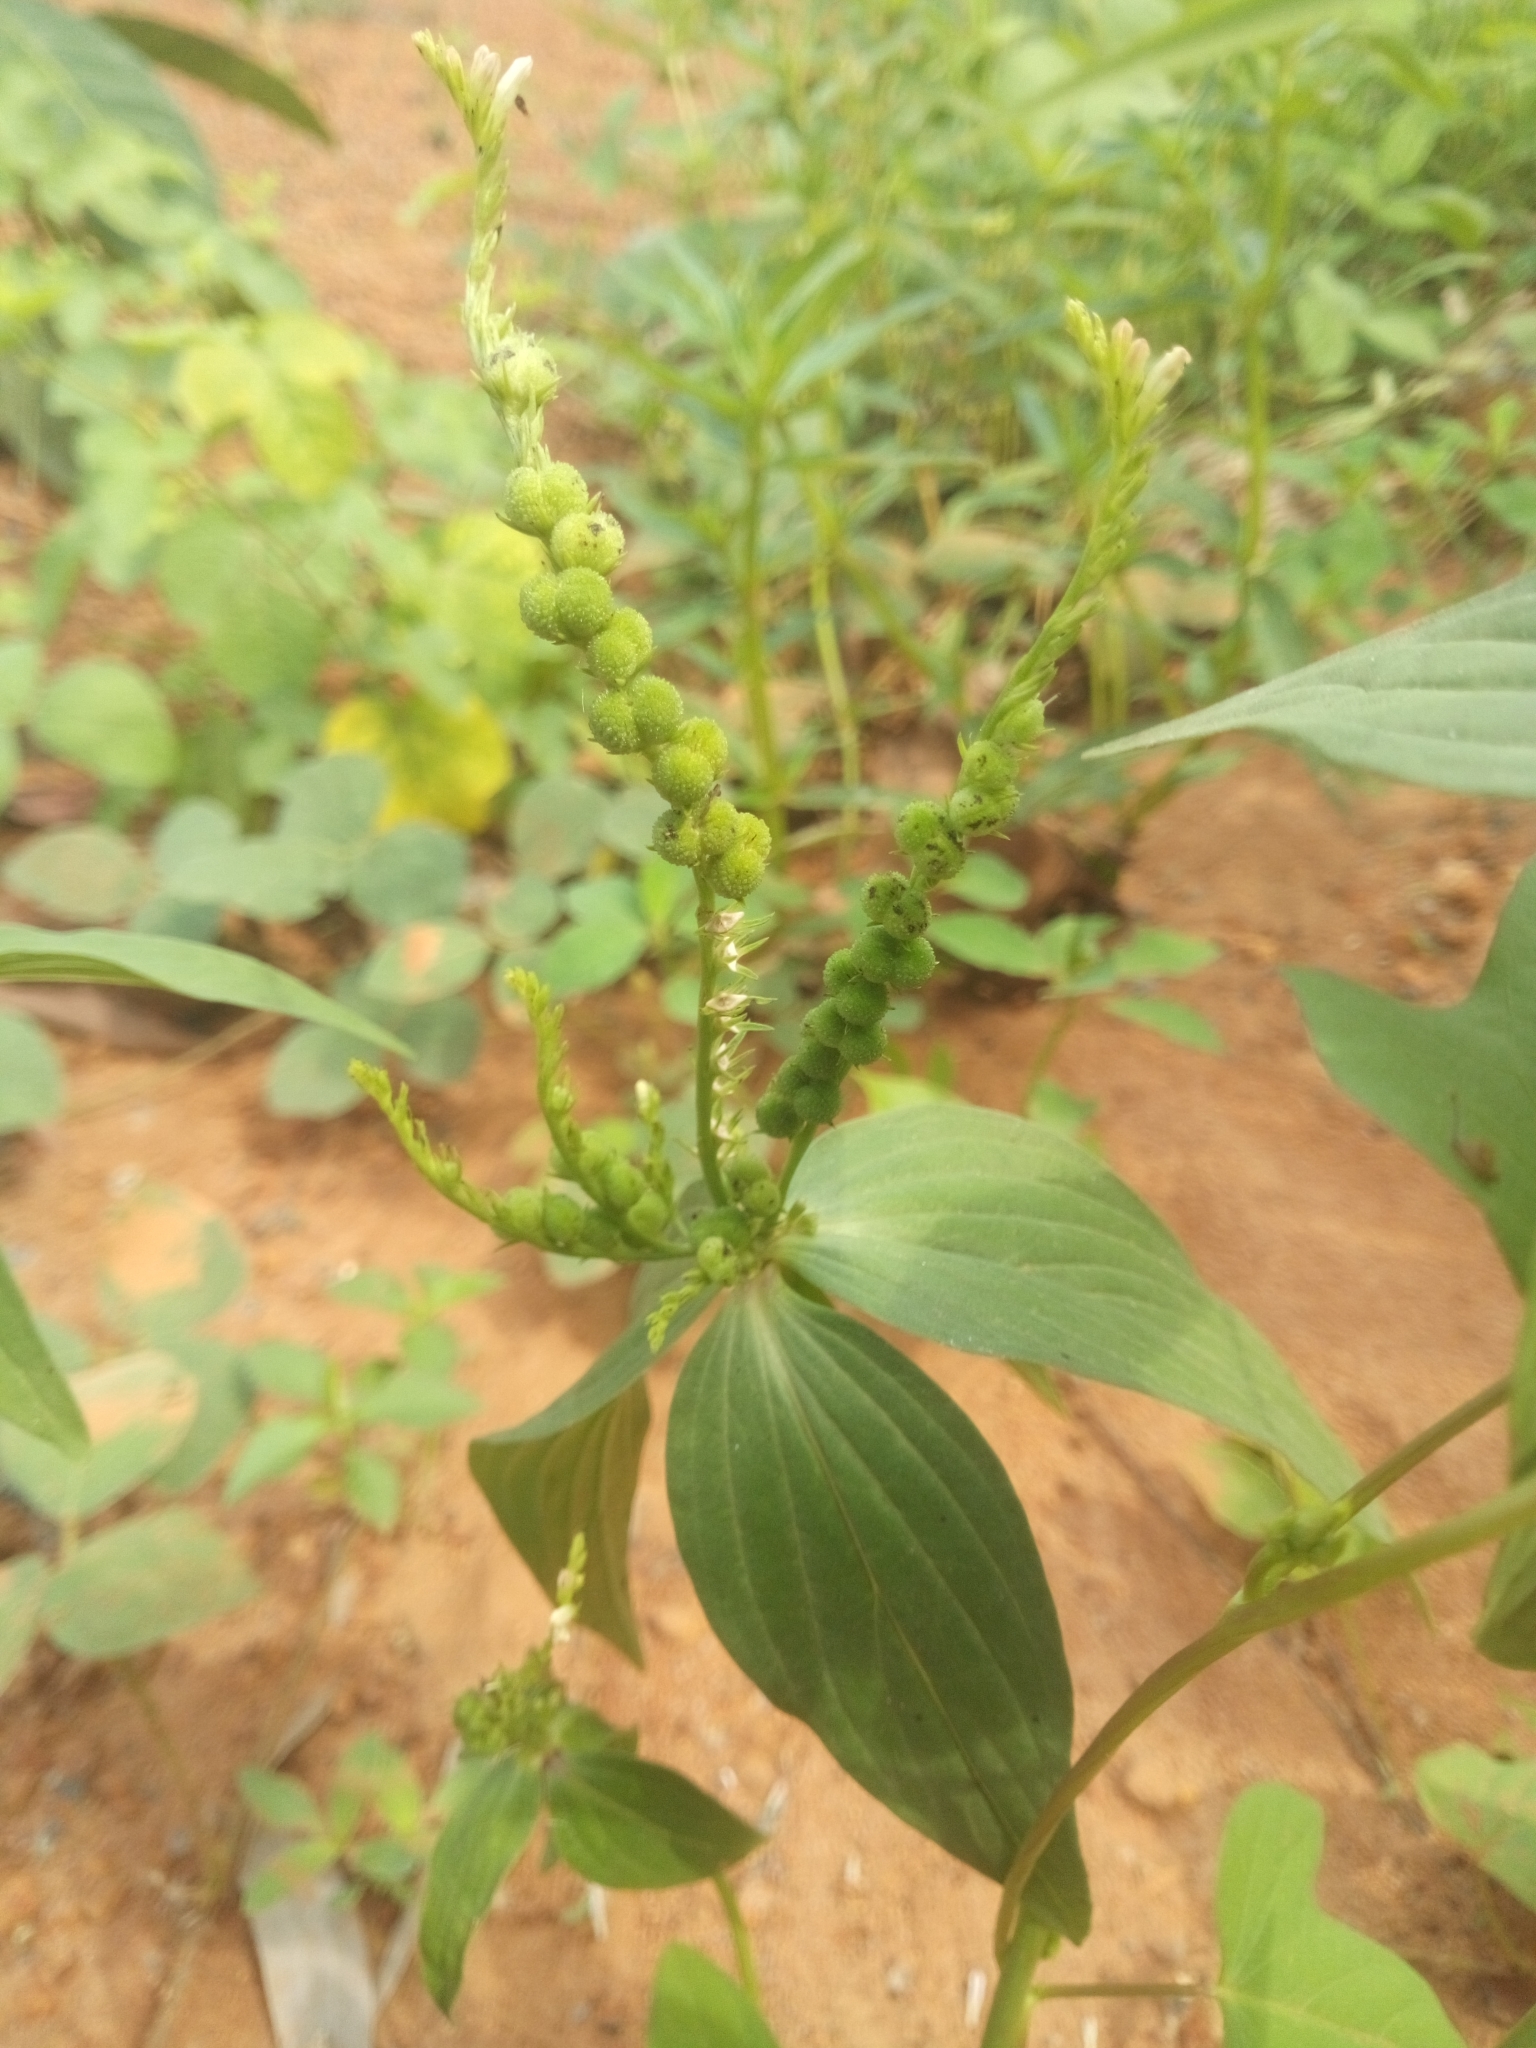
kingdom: Plantae
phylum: Tracheophyta
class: Magnoliopsida
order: Gentianales
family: Loganiaceae
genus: Spigelia
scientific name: Spigelia anthelmia
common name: West indian-pink
